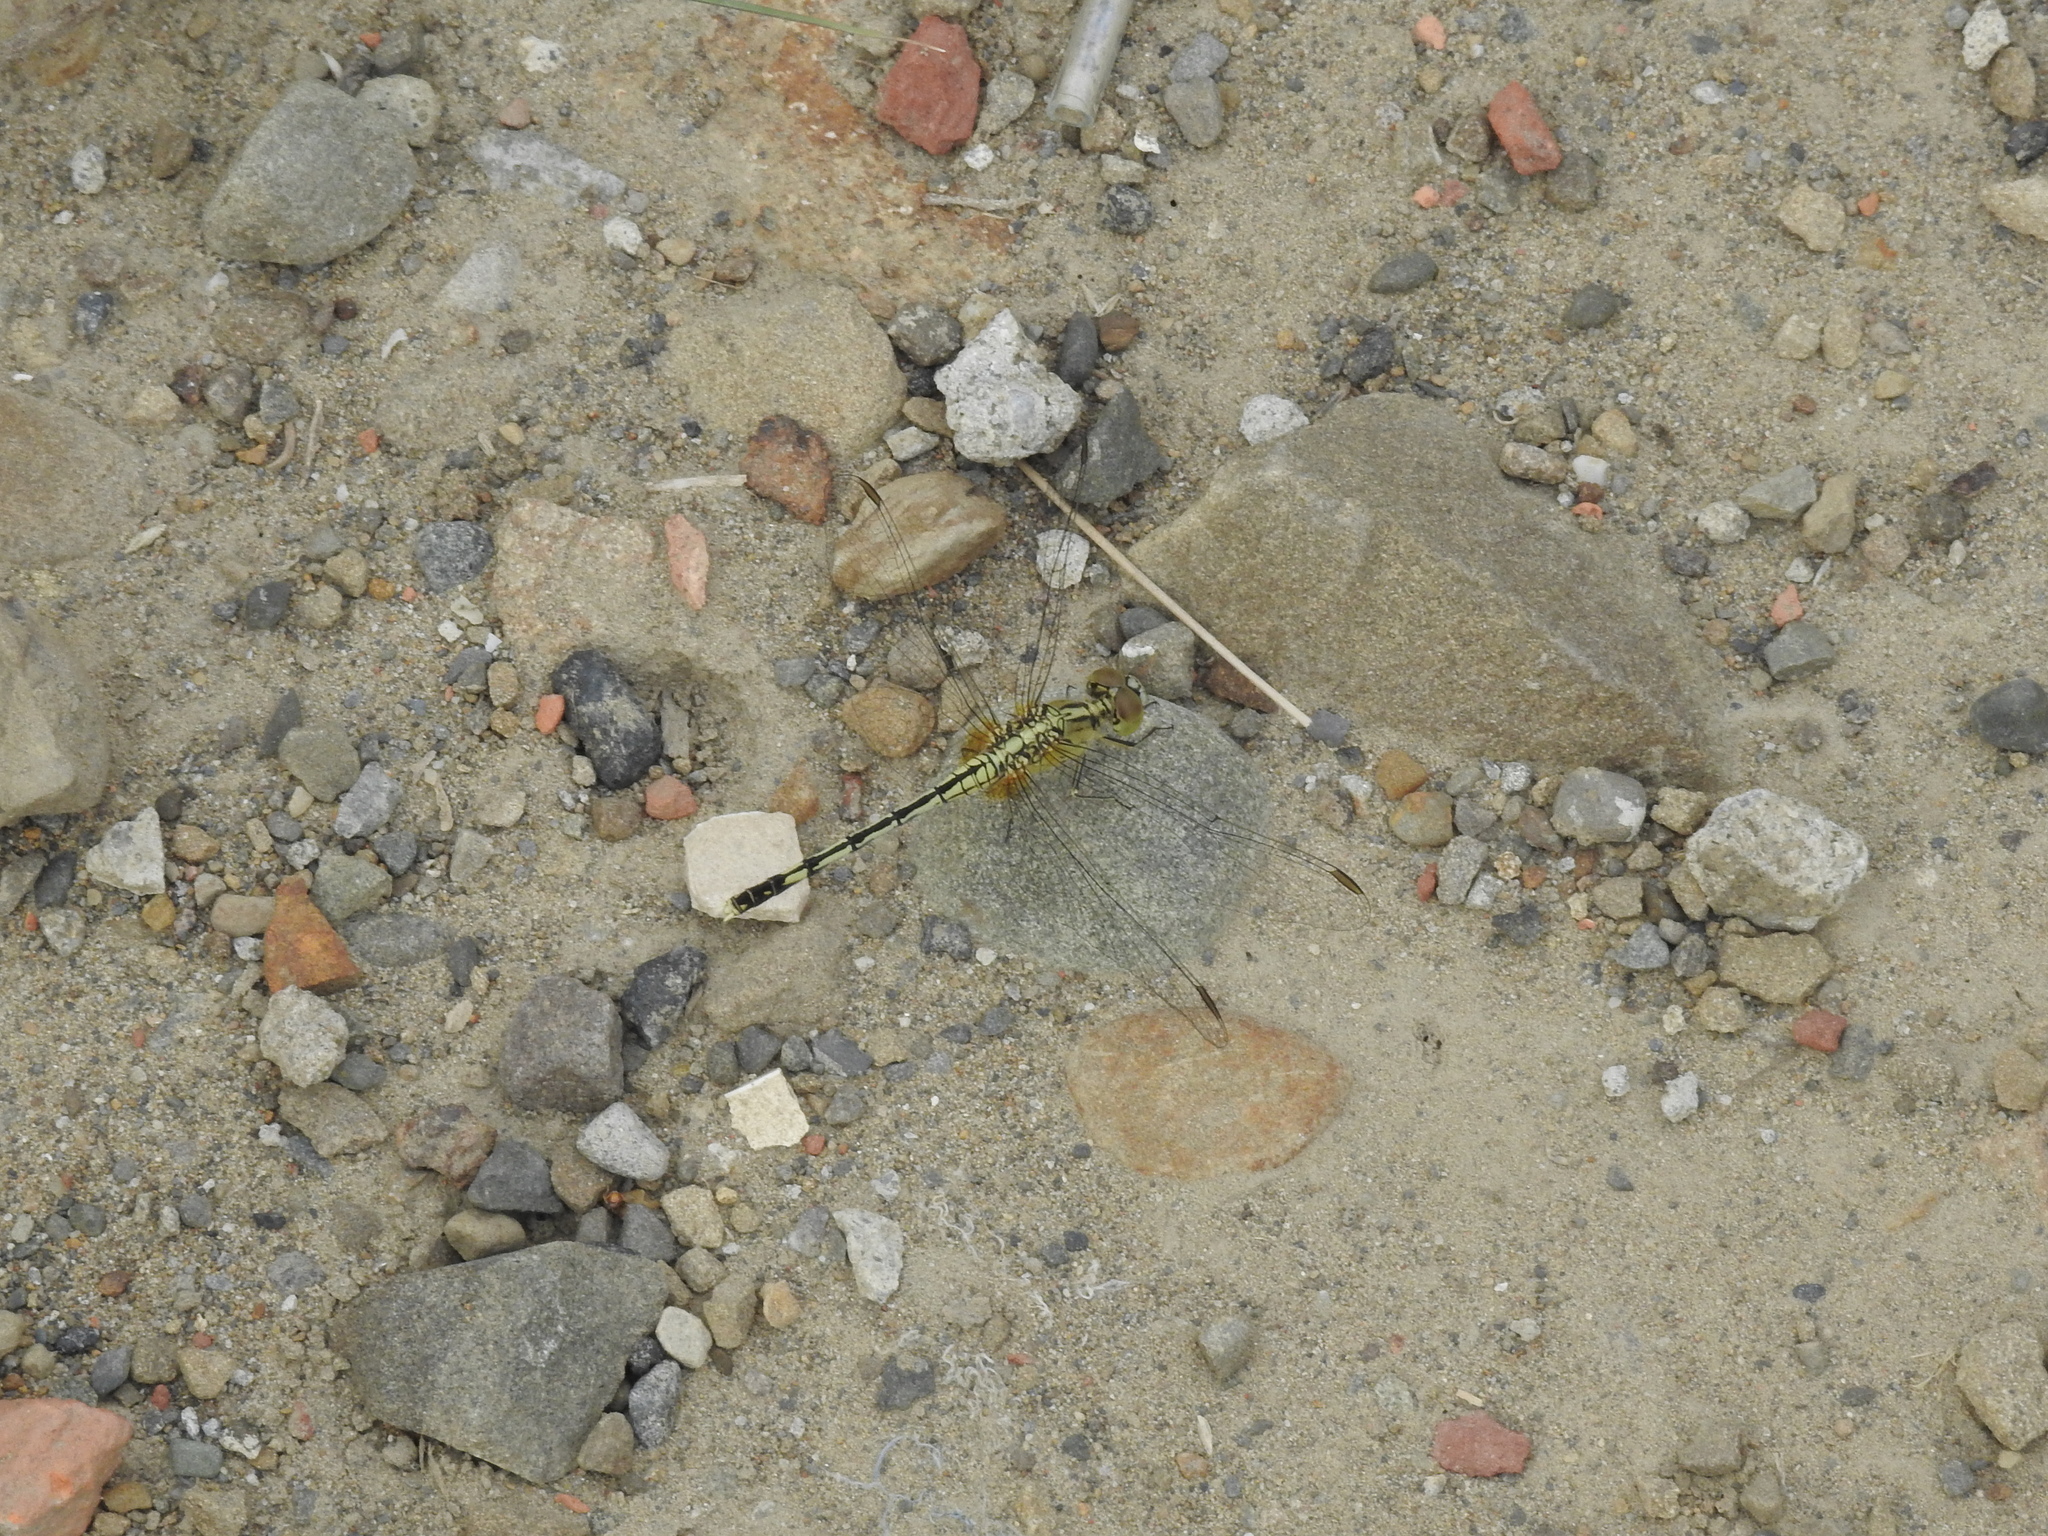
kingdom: Animalia
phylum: Arthropoda
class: Insecta
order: Odonata
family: Libellulidae
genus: Diplacodes
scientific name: Diplacodes trivialis
